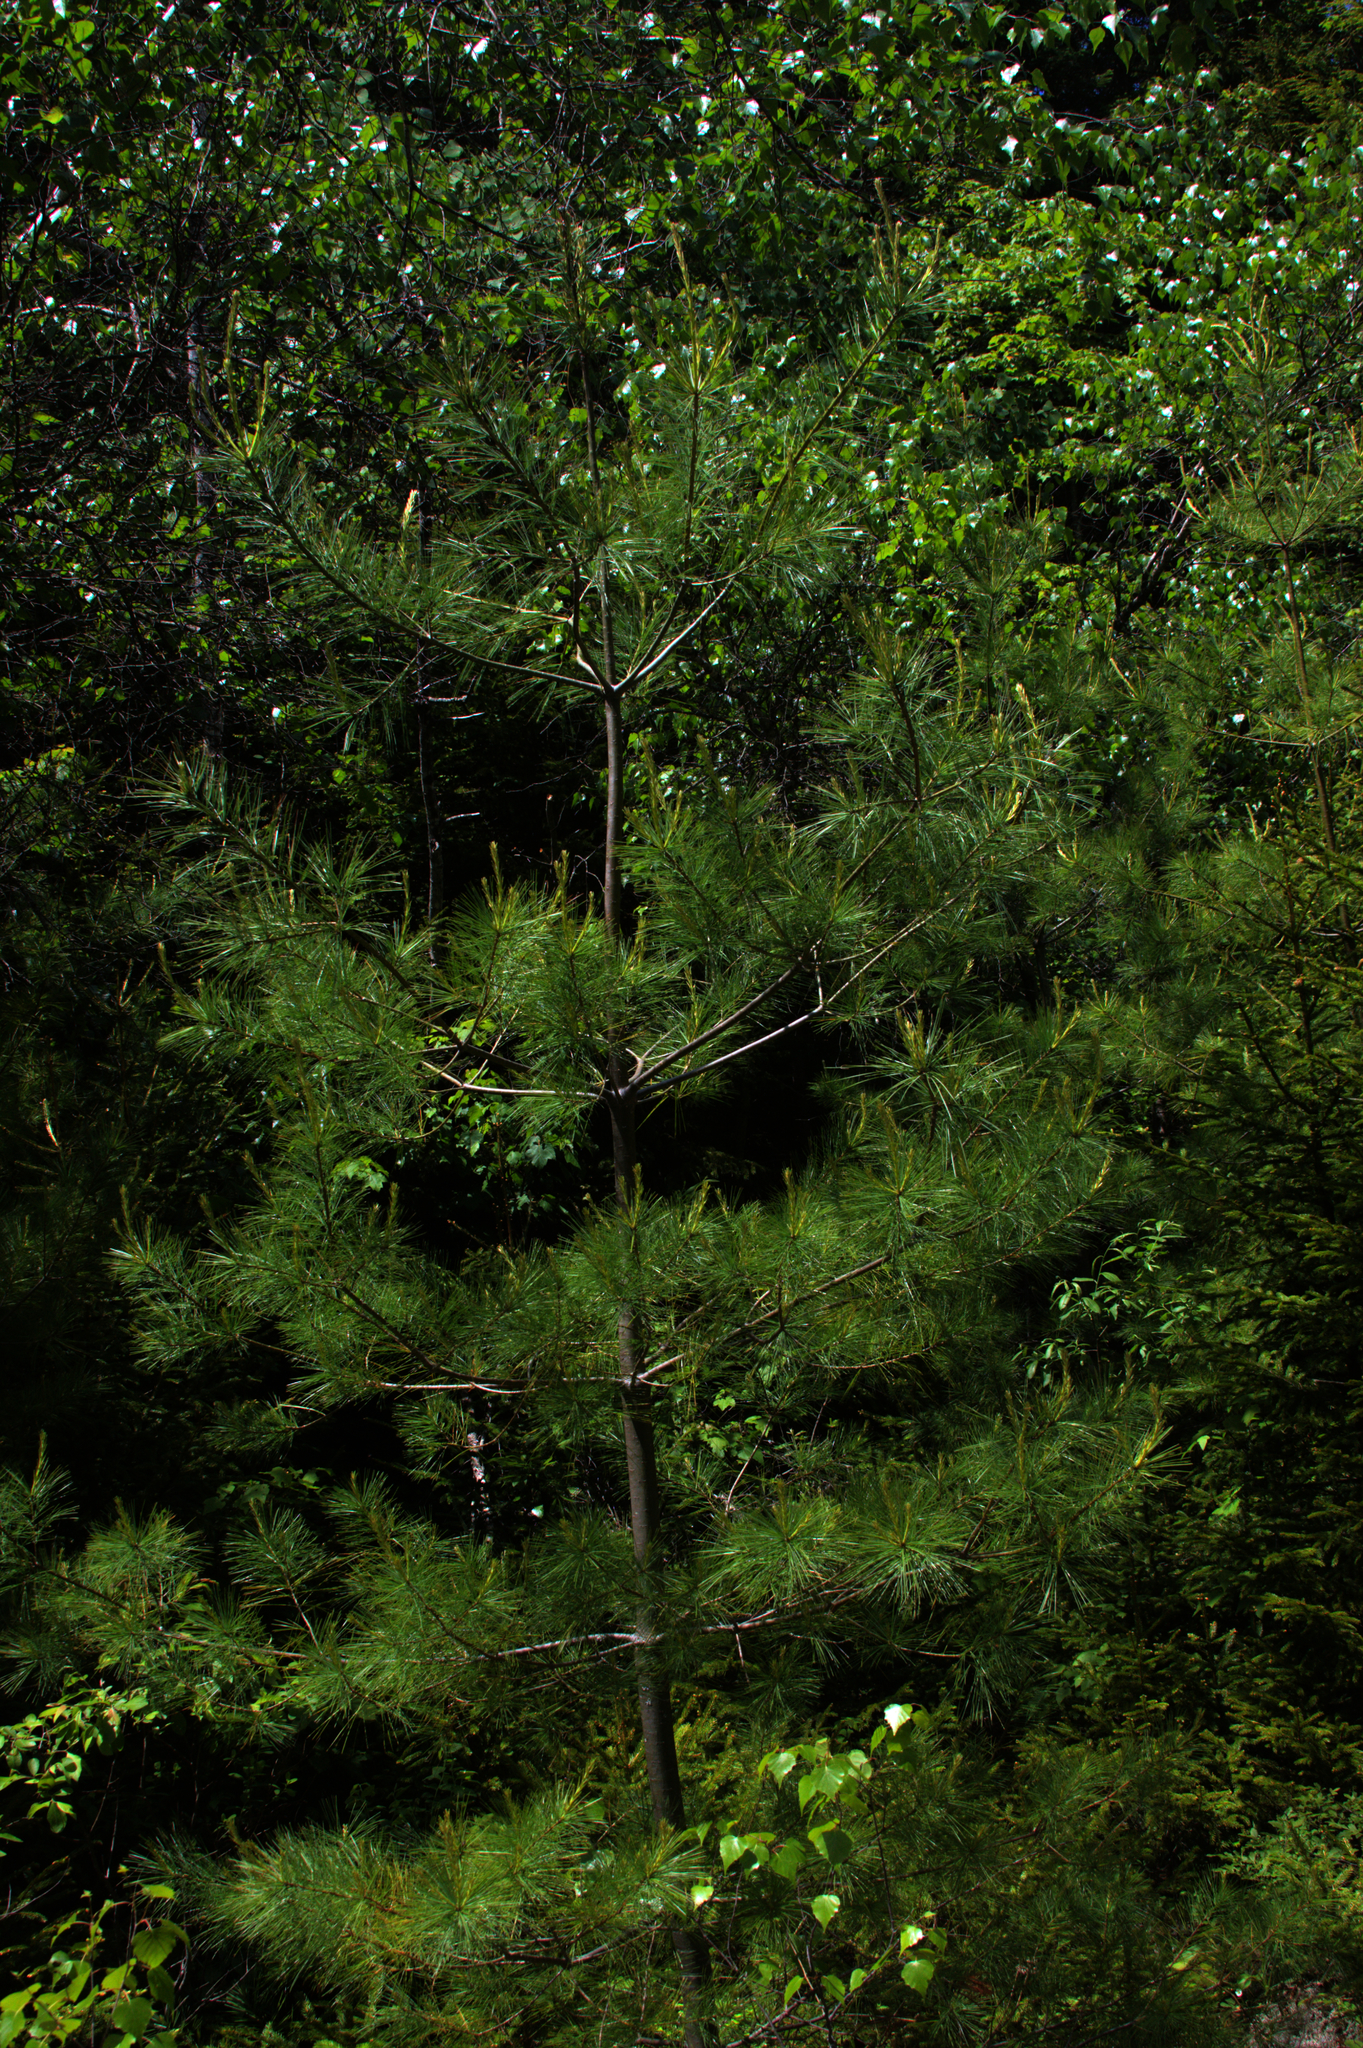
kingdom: Plantae
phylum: Tracheophyta
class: Pinopsida
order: Pinales
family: Pinaceae
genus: Pinus
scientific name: Pinus strobus
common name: Weymouth pine
